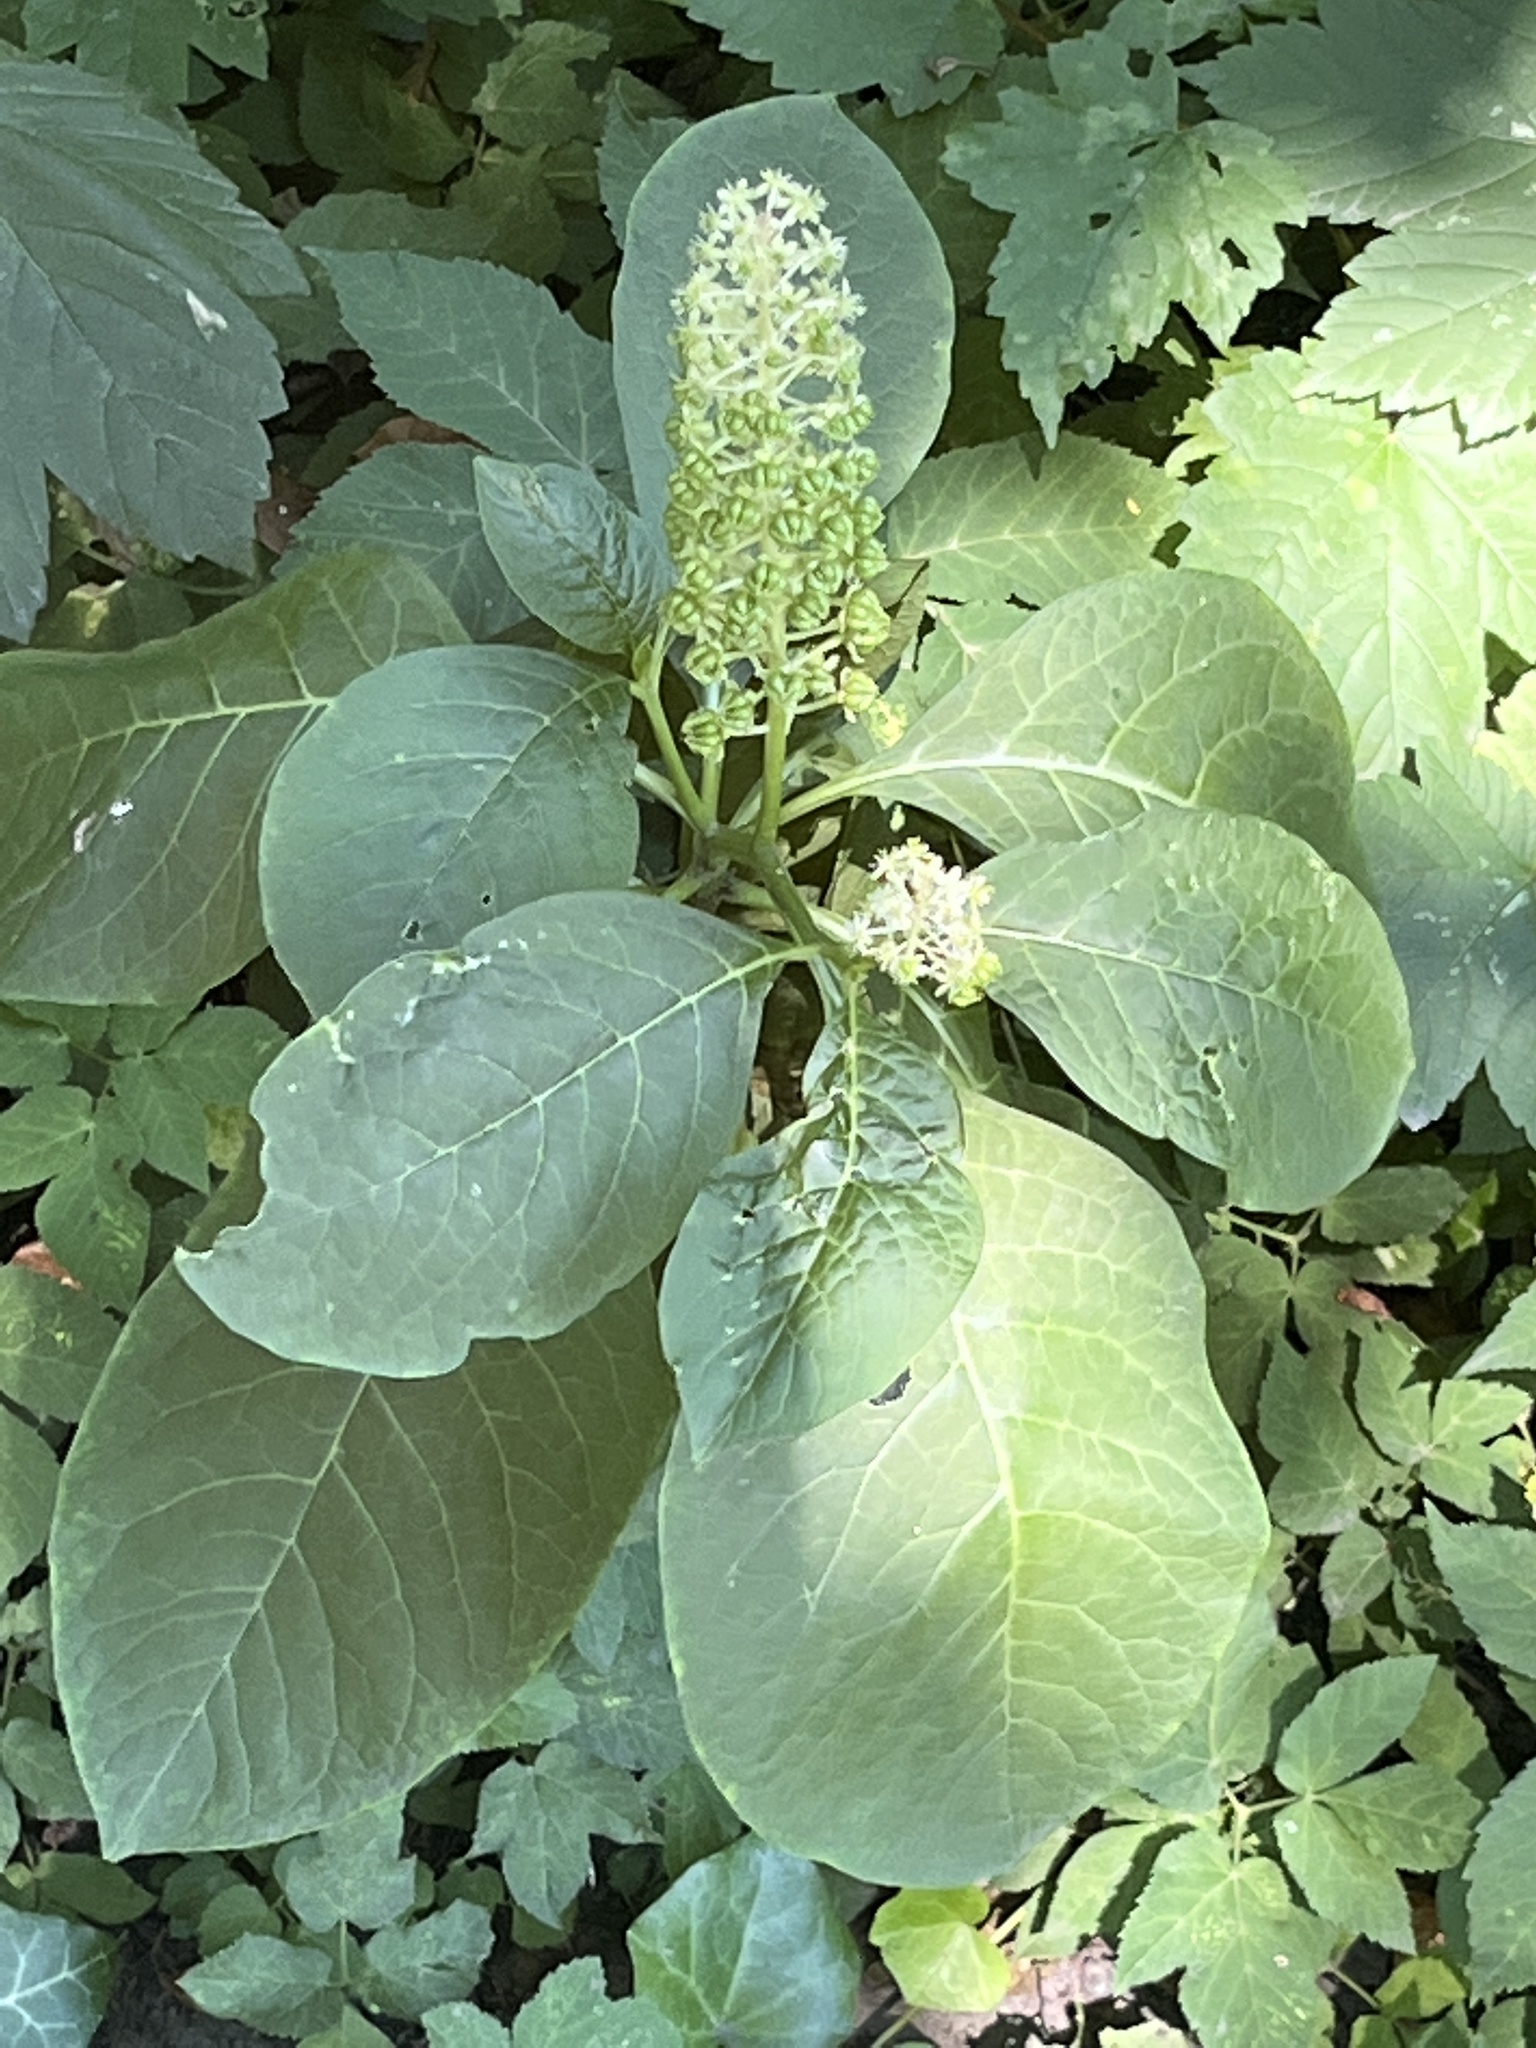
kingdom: Plantae
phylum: Tracheophyta
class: Magnoliopsida
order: Caryophyllales
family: Phytolaccaceae
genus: Phytolacca
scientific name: Phytolacca acinosa
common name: Indian pokeweed
